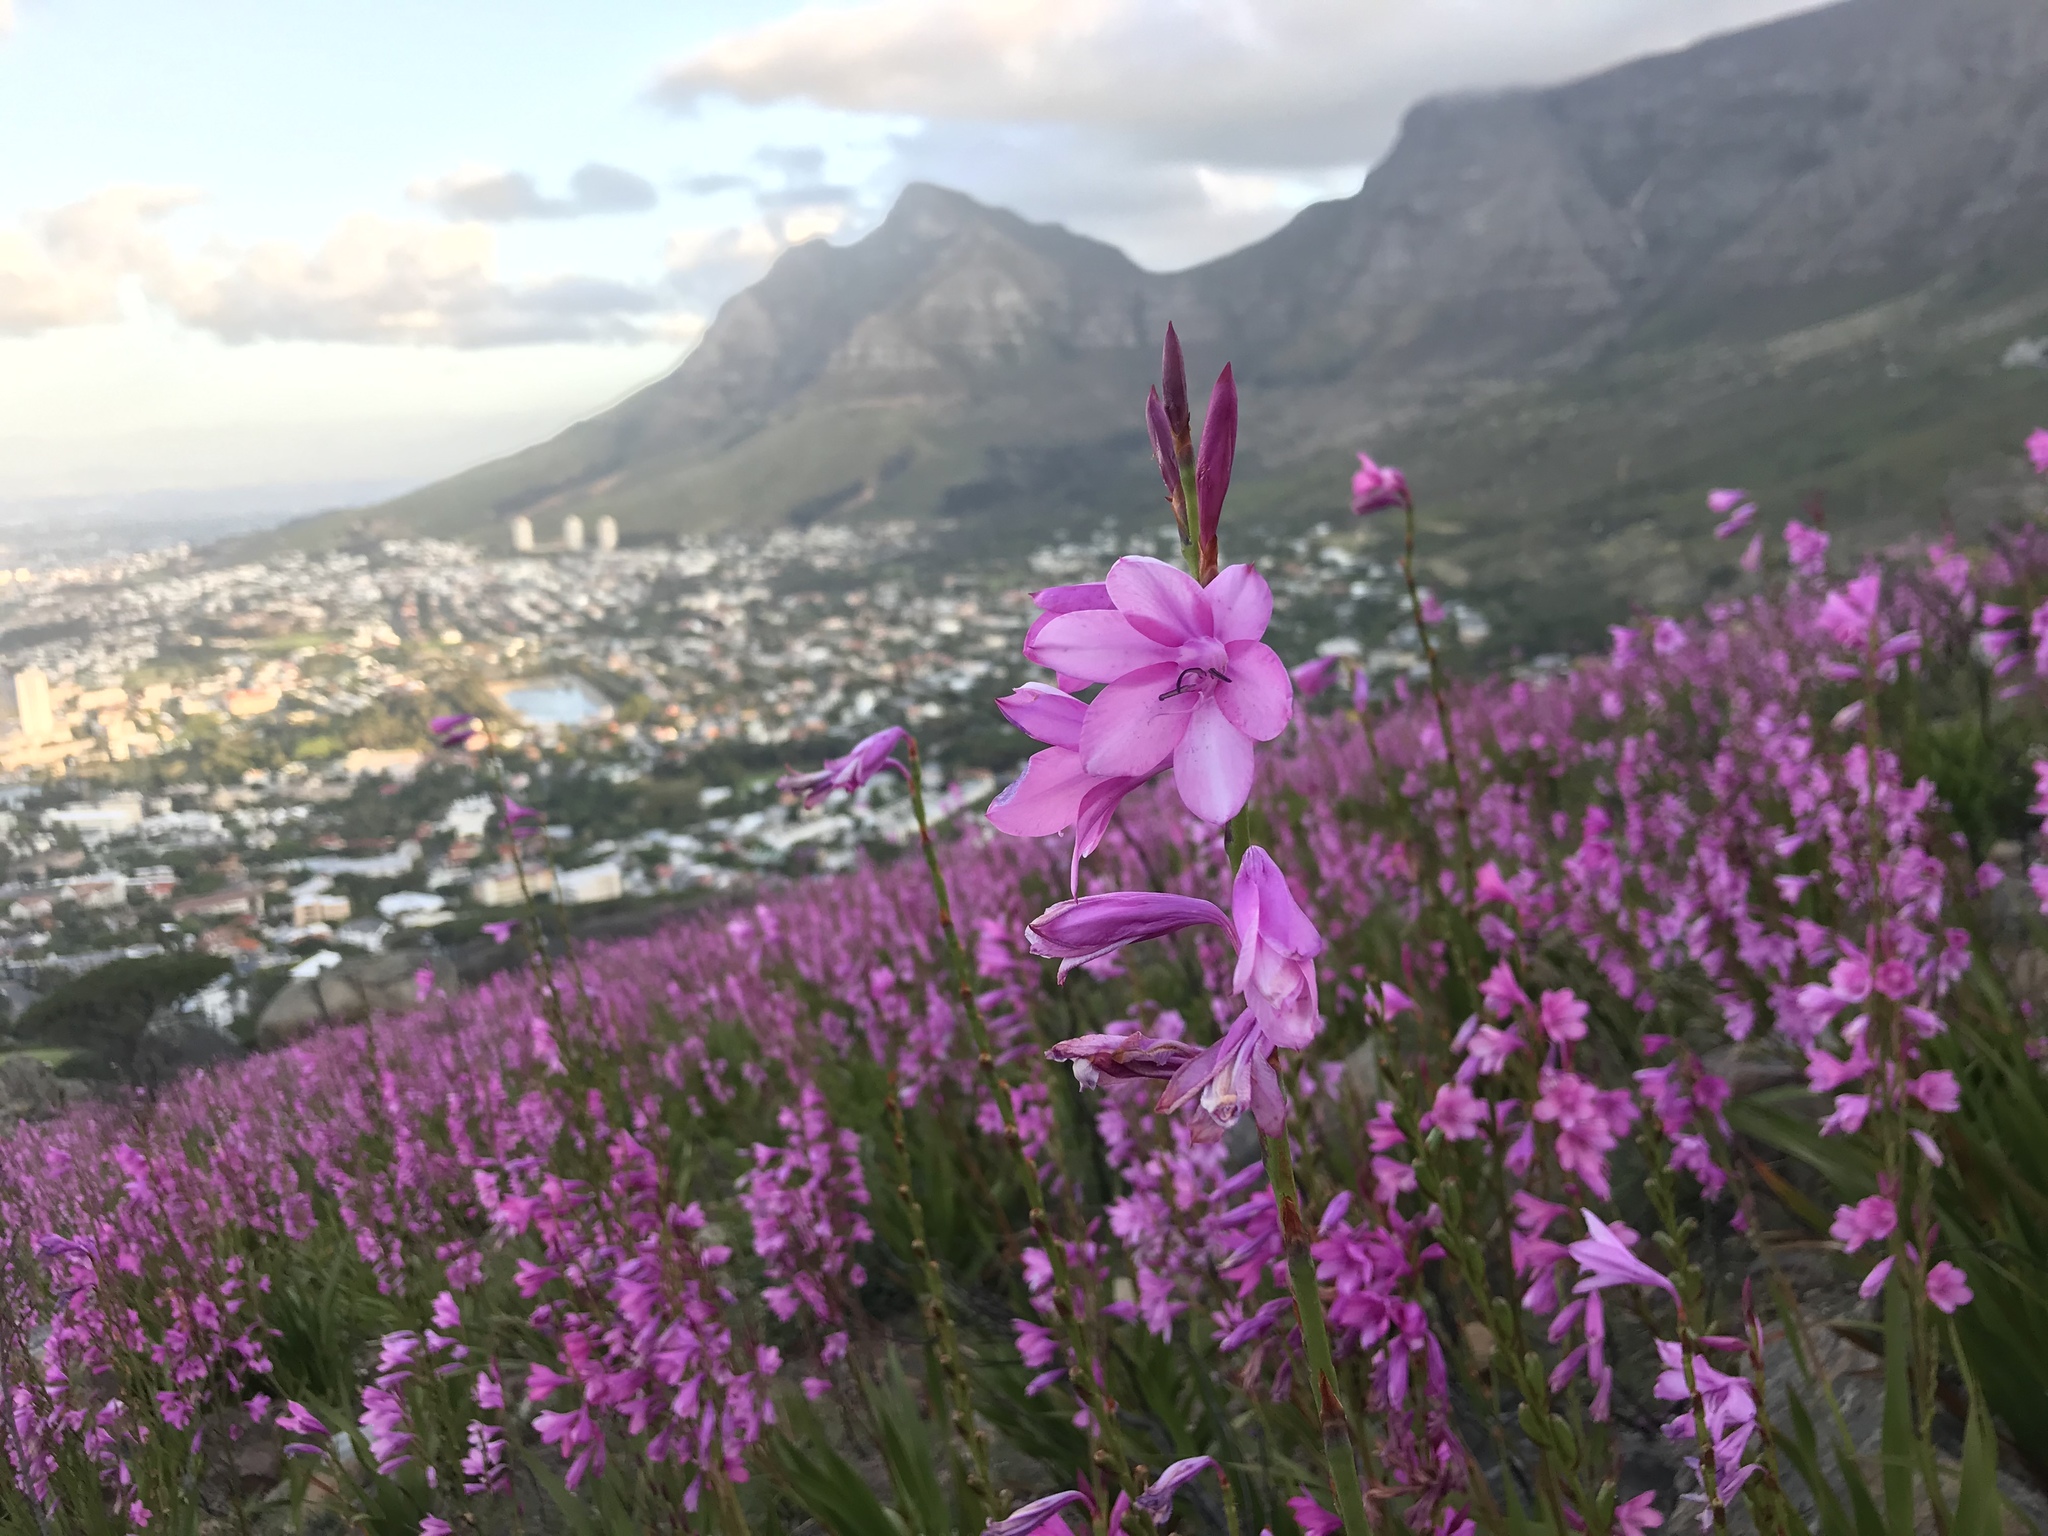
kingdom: Plantae
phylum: Tracheophyta
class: Liliopsida
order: Asparagales
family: Iridaceae
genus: Watsonia
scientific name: Watsonia borbonica
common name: Bugle-lily
